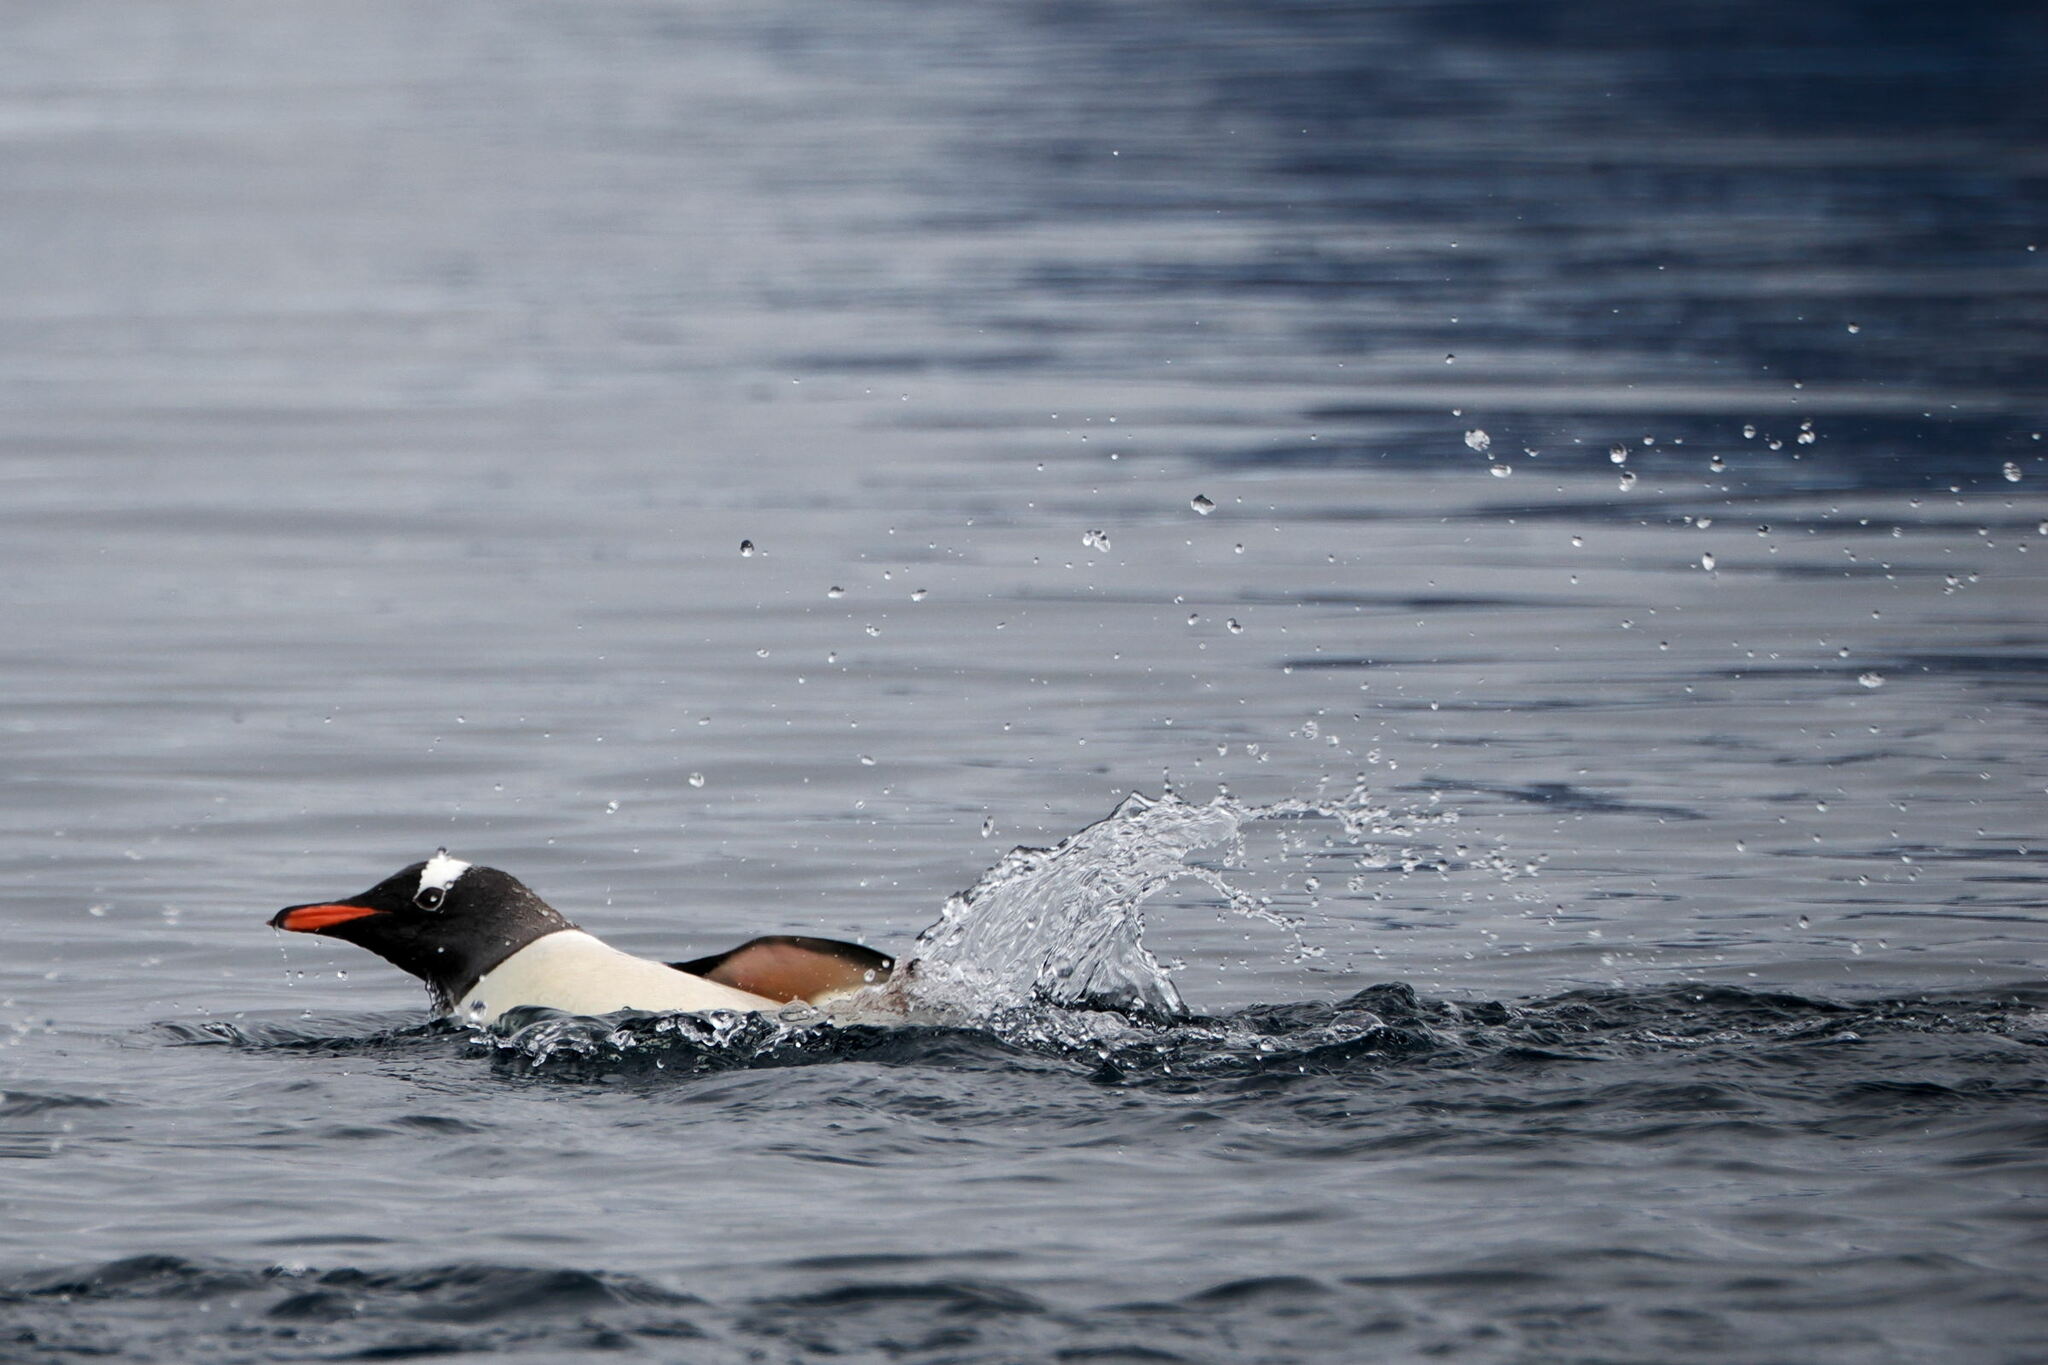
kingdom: Animalia
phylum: Chordata
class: Aves
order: Sphenisciformes
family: Spheniscidae
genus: Pygoscelis
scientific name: Pygoscelis papua
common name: Gentoo penguin
